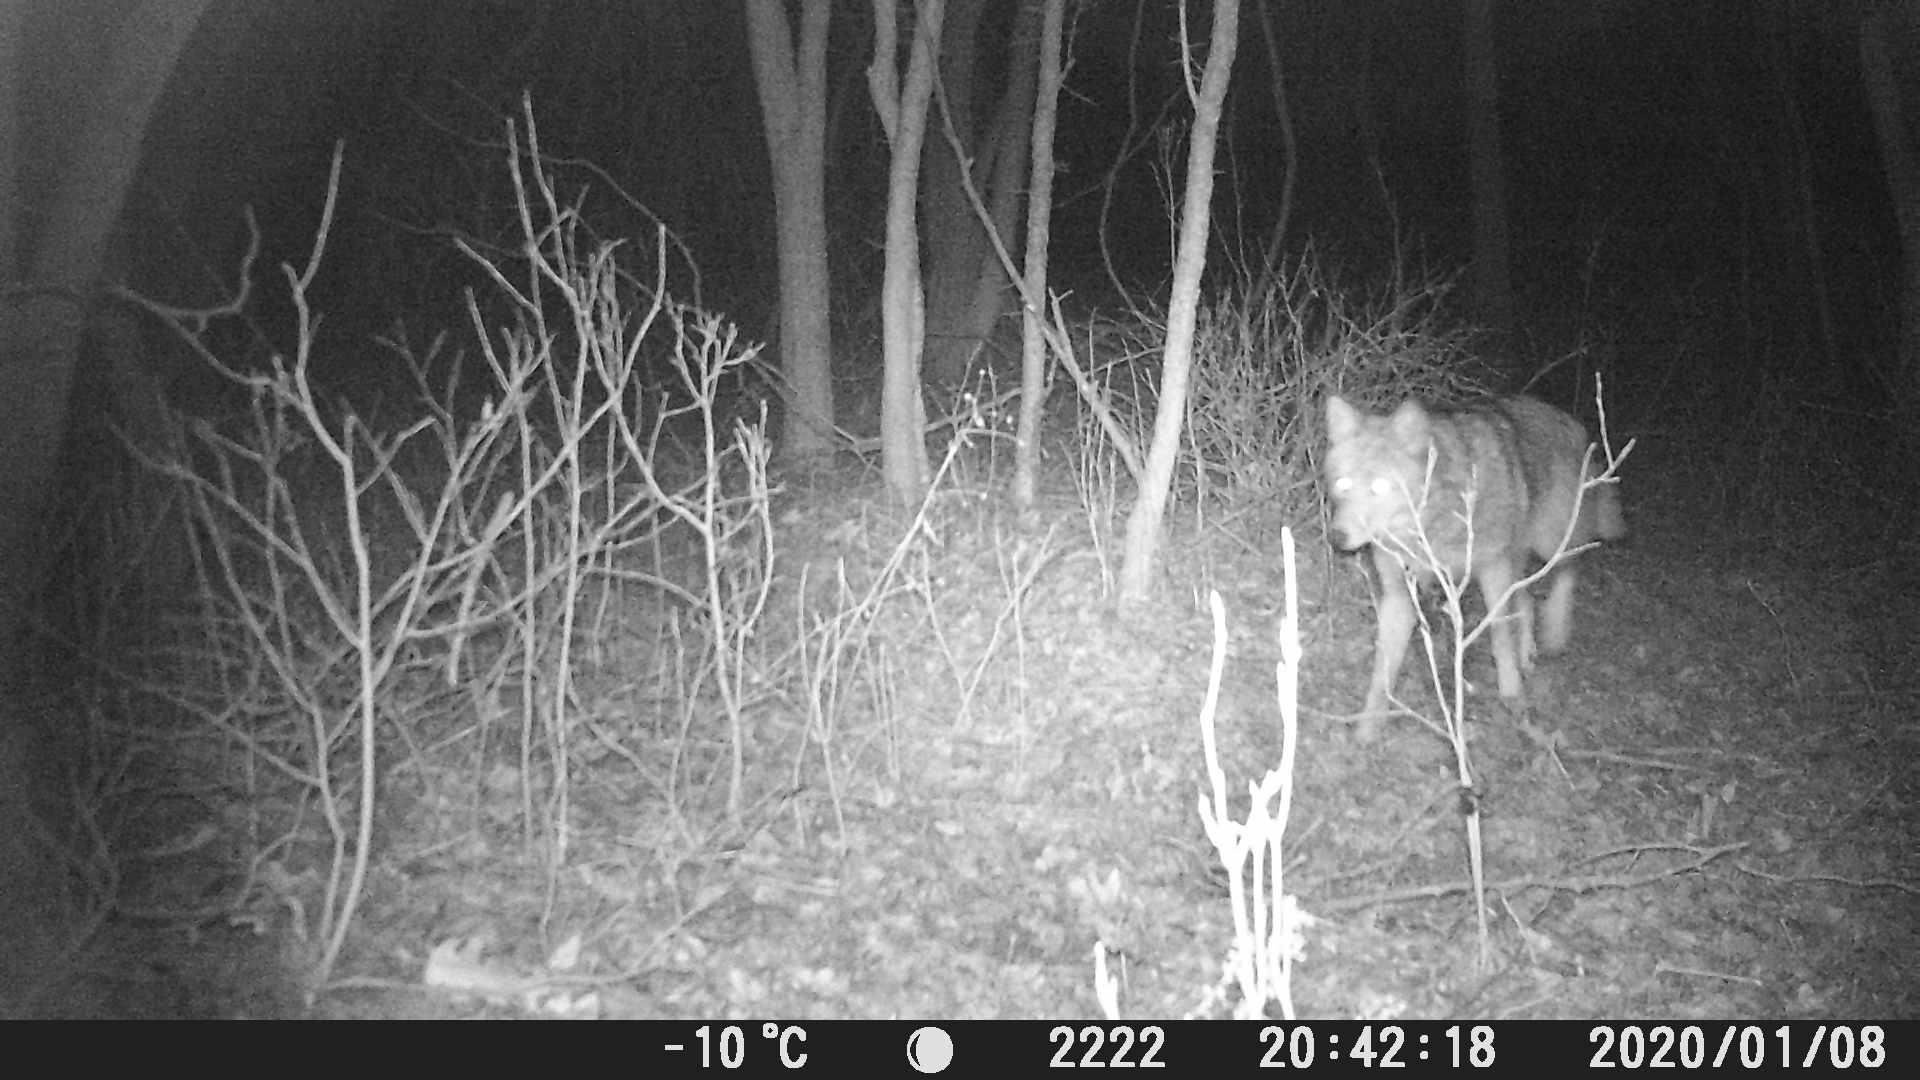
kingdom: Animalia
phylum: Chordata
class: Mammalia
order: Carnivora
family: Canidae
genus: Canis
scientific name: Canis latrans
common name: Coyote
